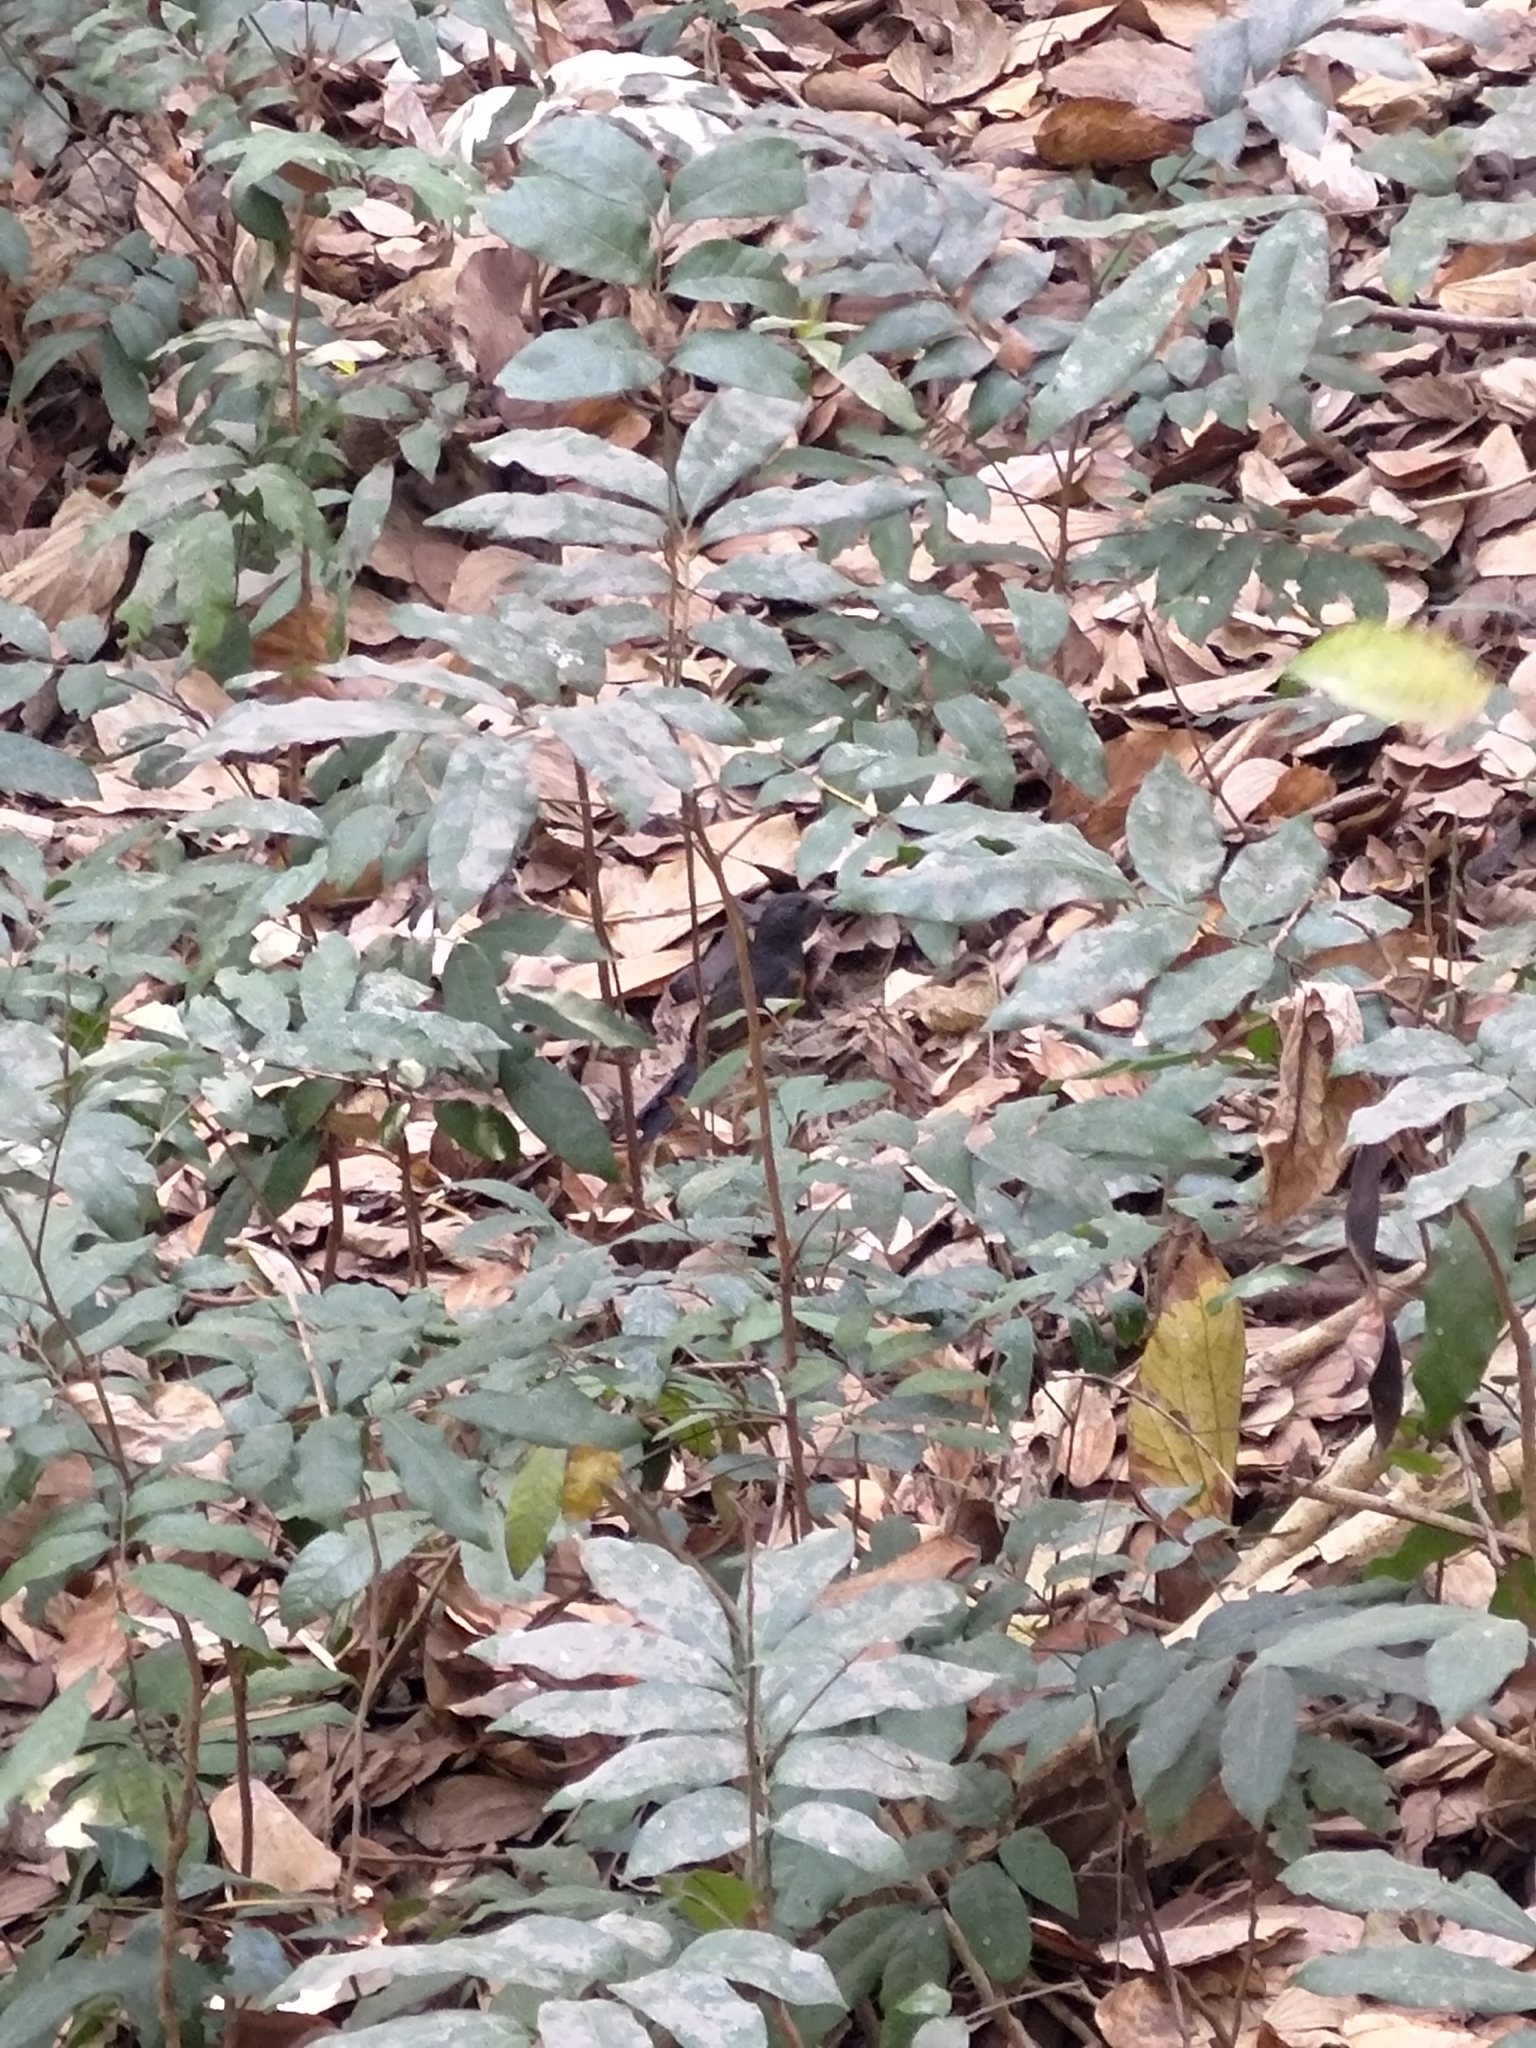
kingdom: Animalia
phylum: Chordata
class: Aves
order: Passeriformes
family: Muscicapidae
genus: Copsychus
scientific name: Copsychus malabaricus
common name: White-rumped shama
